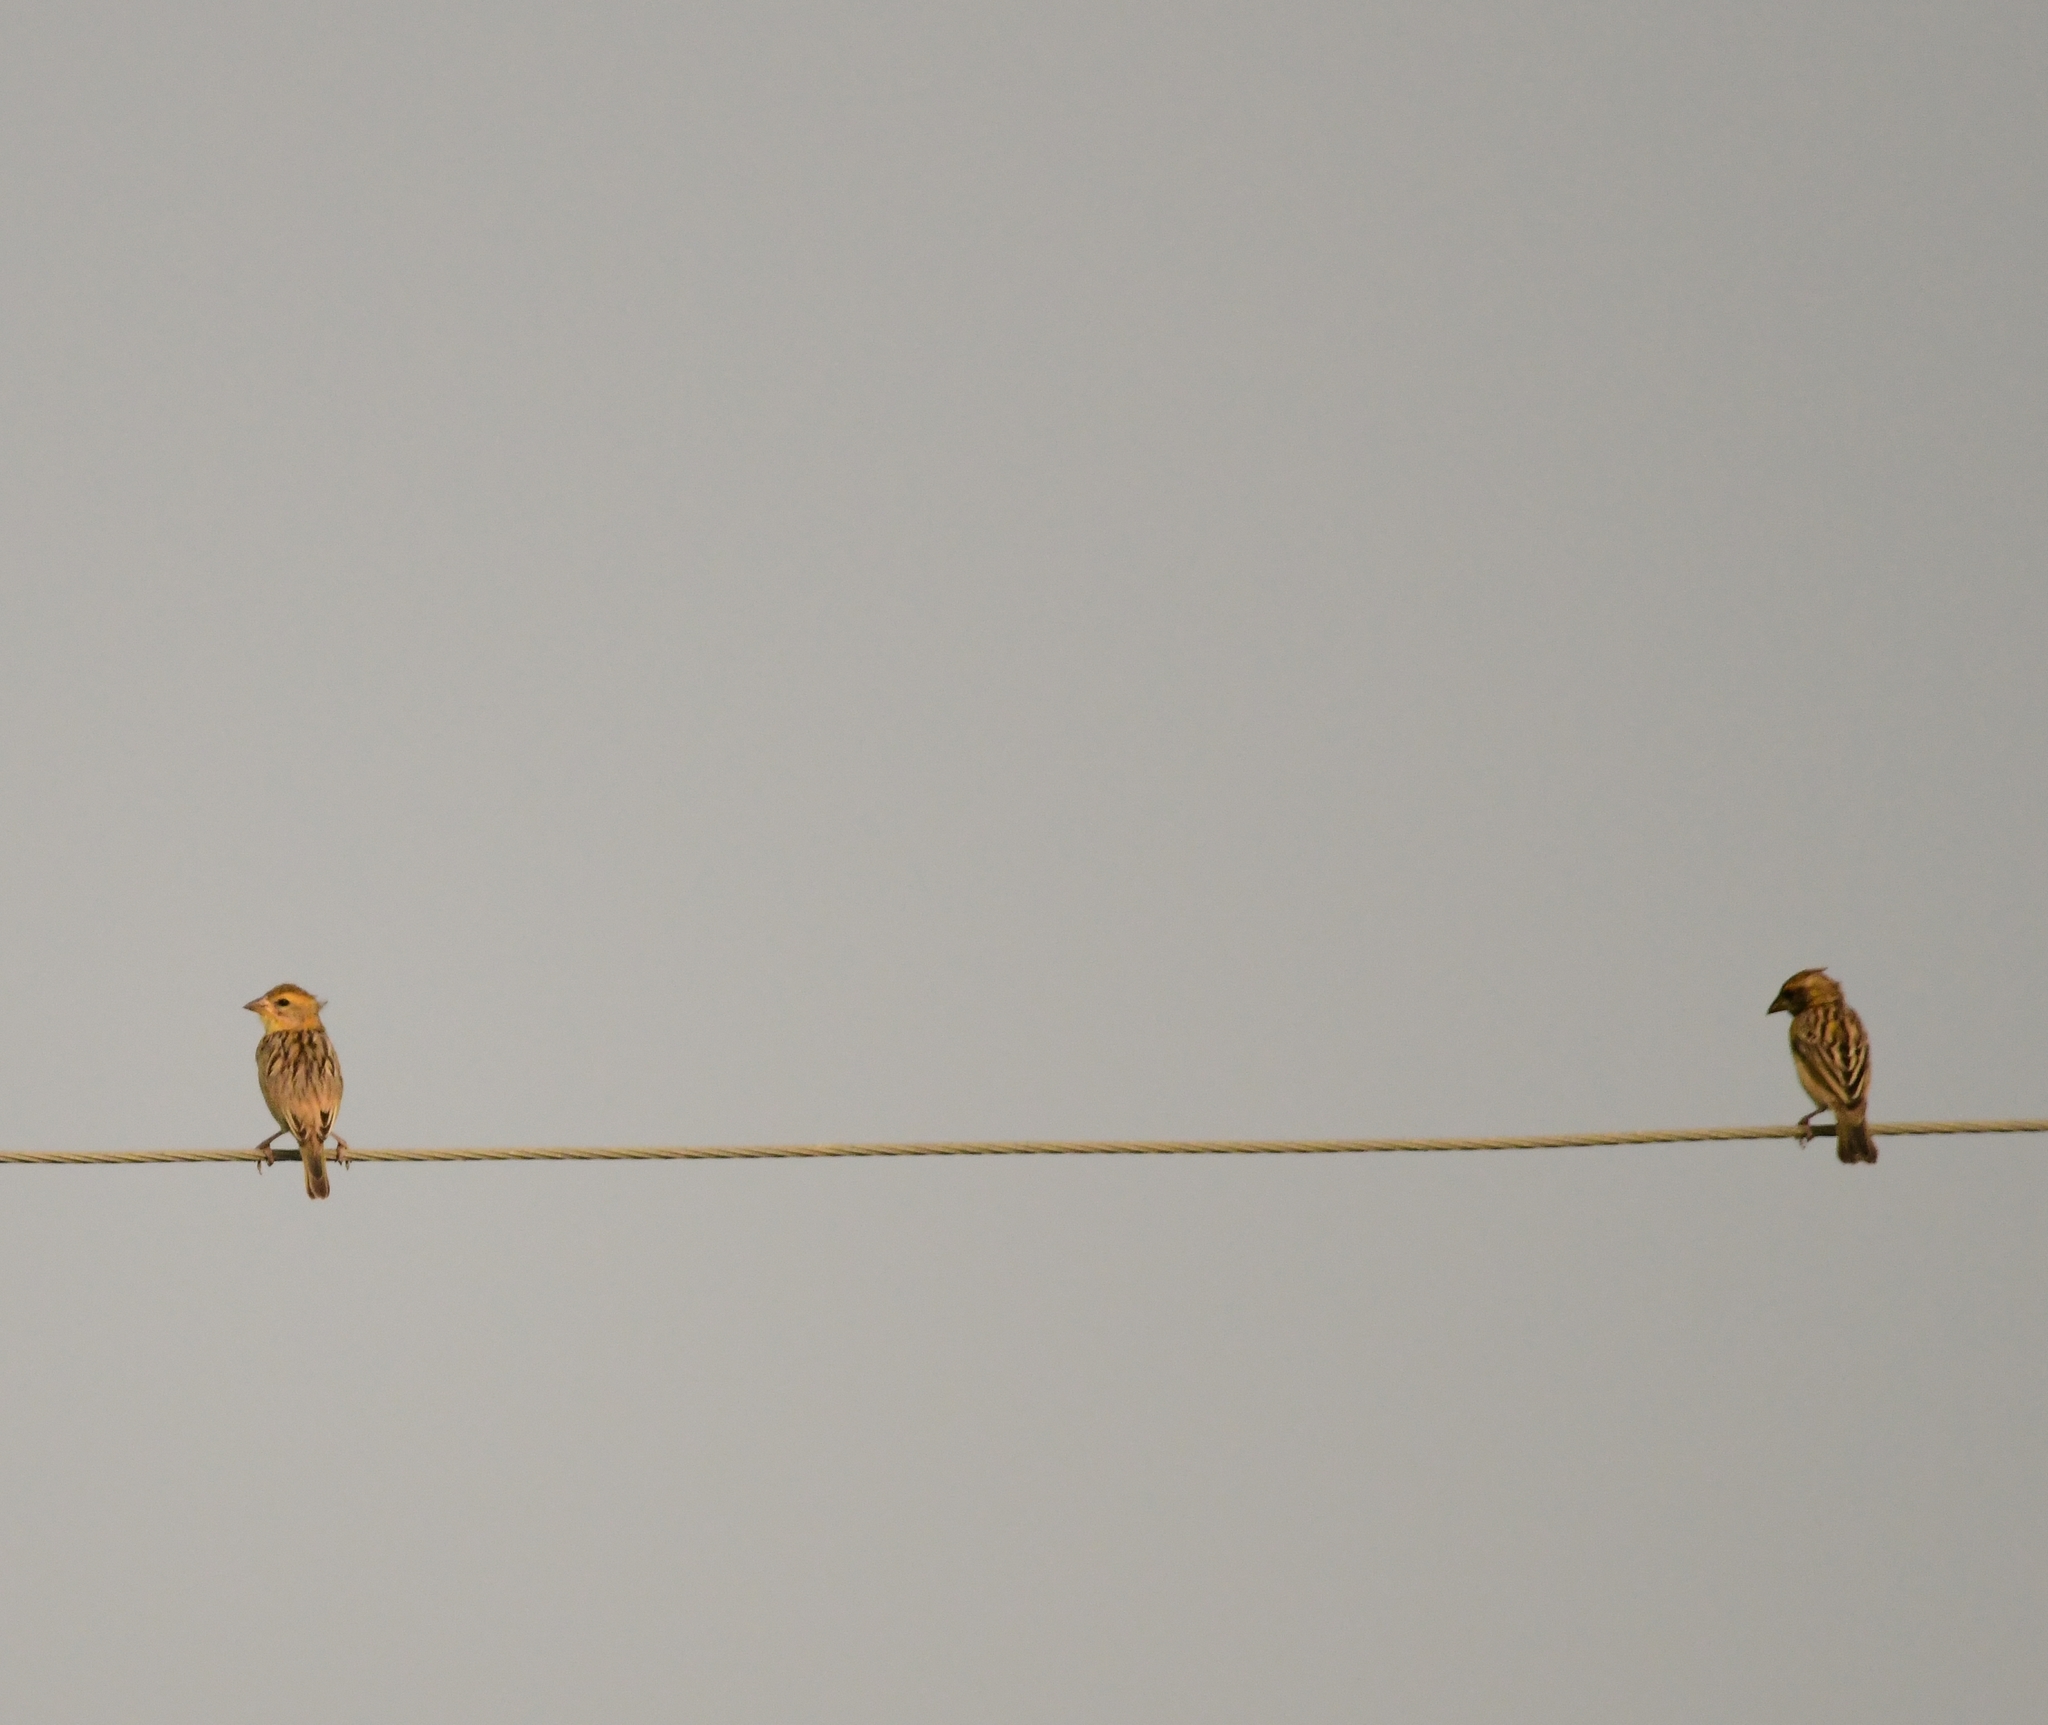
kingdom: Animalia
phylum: Chordata
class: Aves
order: Passeriformes
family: Ploceidae
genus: Ploceus
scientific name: Ploceus philippinus
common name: Baya weaver
